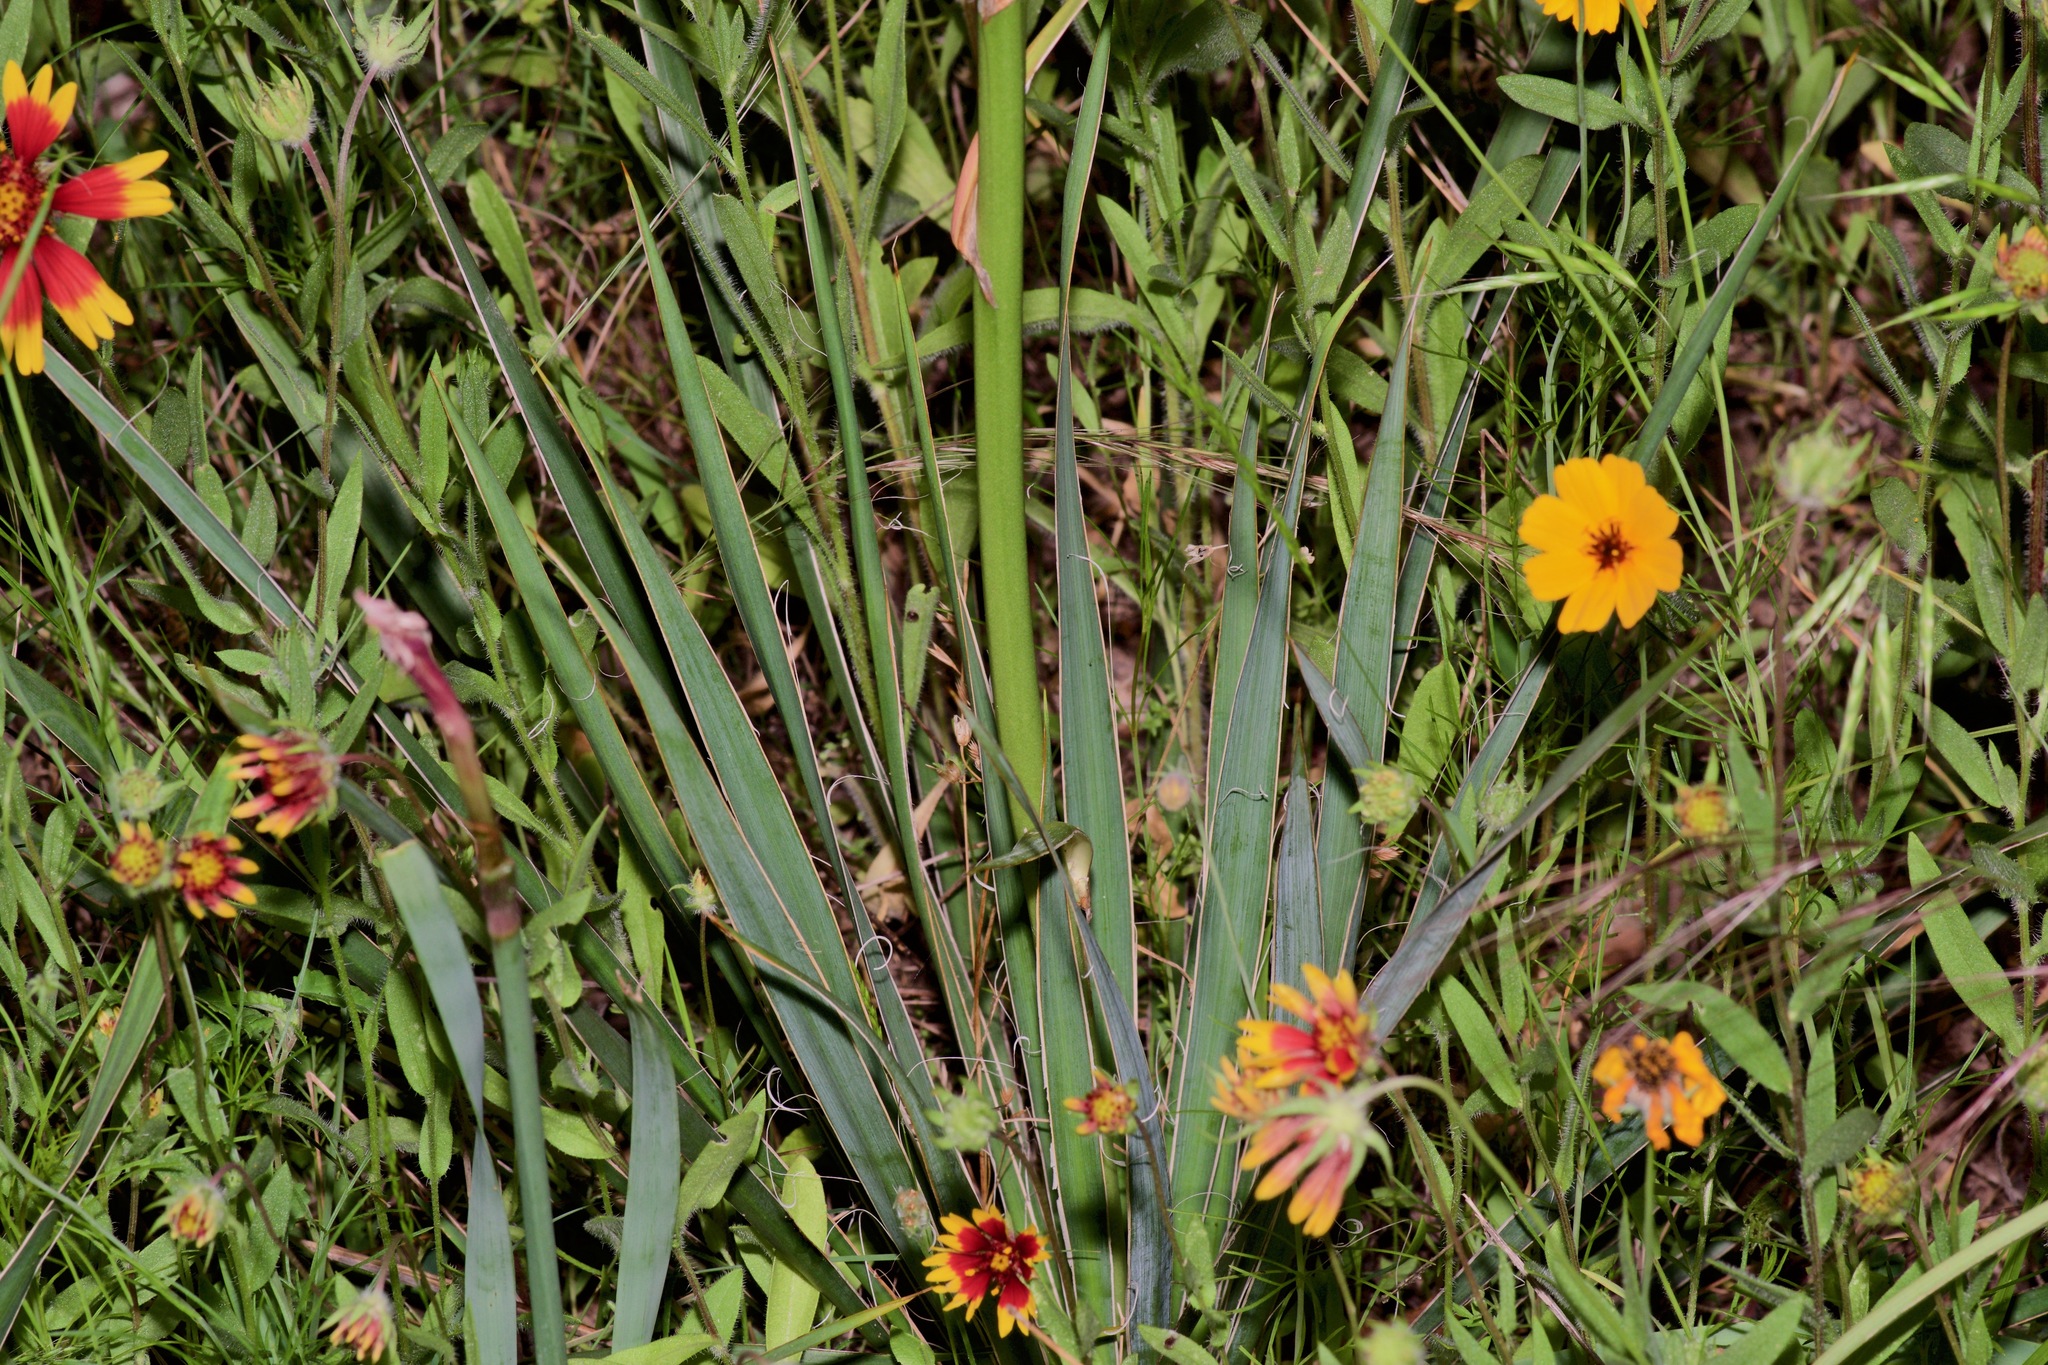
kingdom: Plantae
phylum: Tracheophyta
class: Liliopsida
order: Asparagales
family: Asparagaceae
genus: Yucca
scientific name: Yucca arkansana
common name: Arkansas yucca
